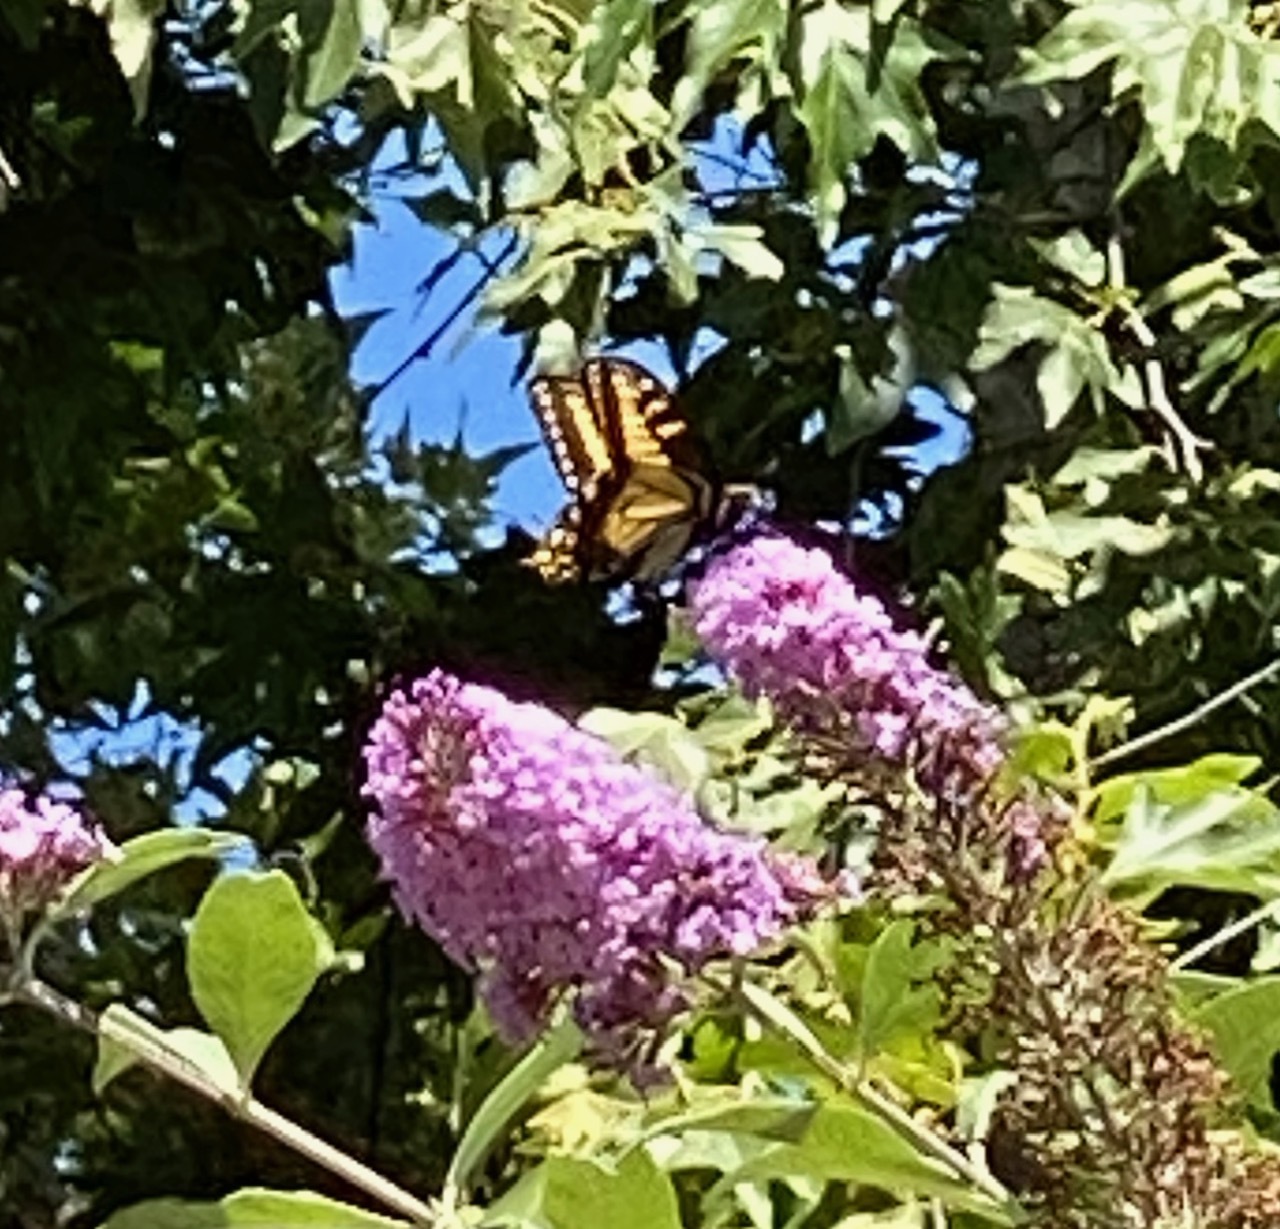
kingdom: Animalia
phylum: Arthropoda
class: Insecta
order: Lepidoptera
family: Papilionidae
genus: Papilio
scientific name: Papilio zelicaon
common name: Anise swallowtail
